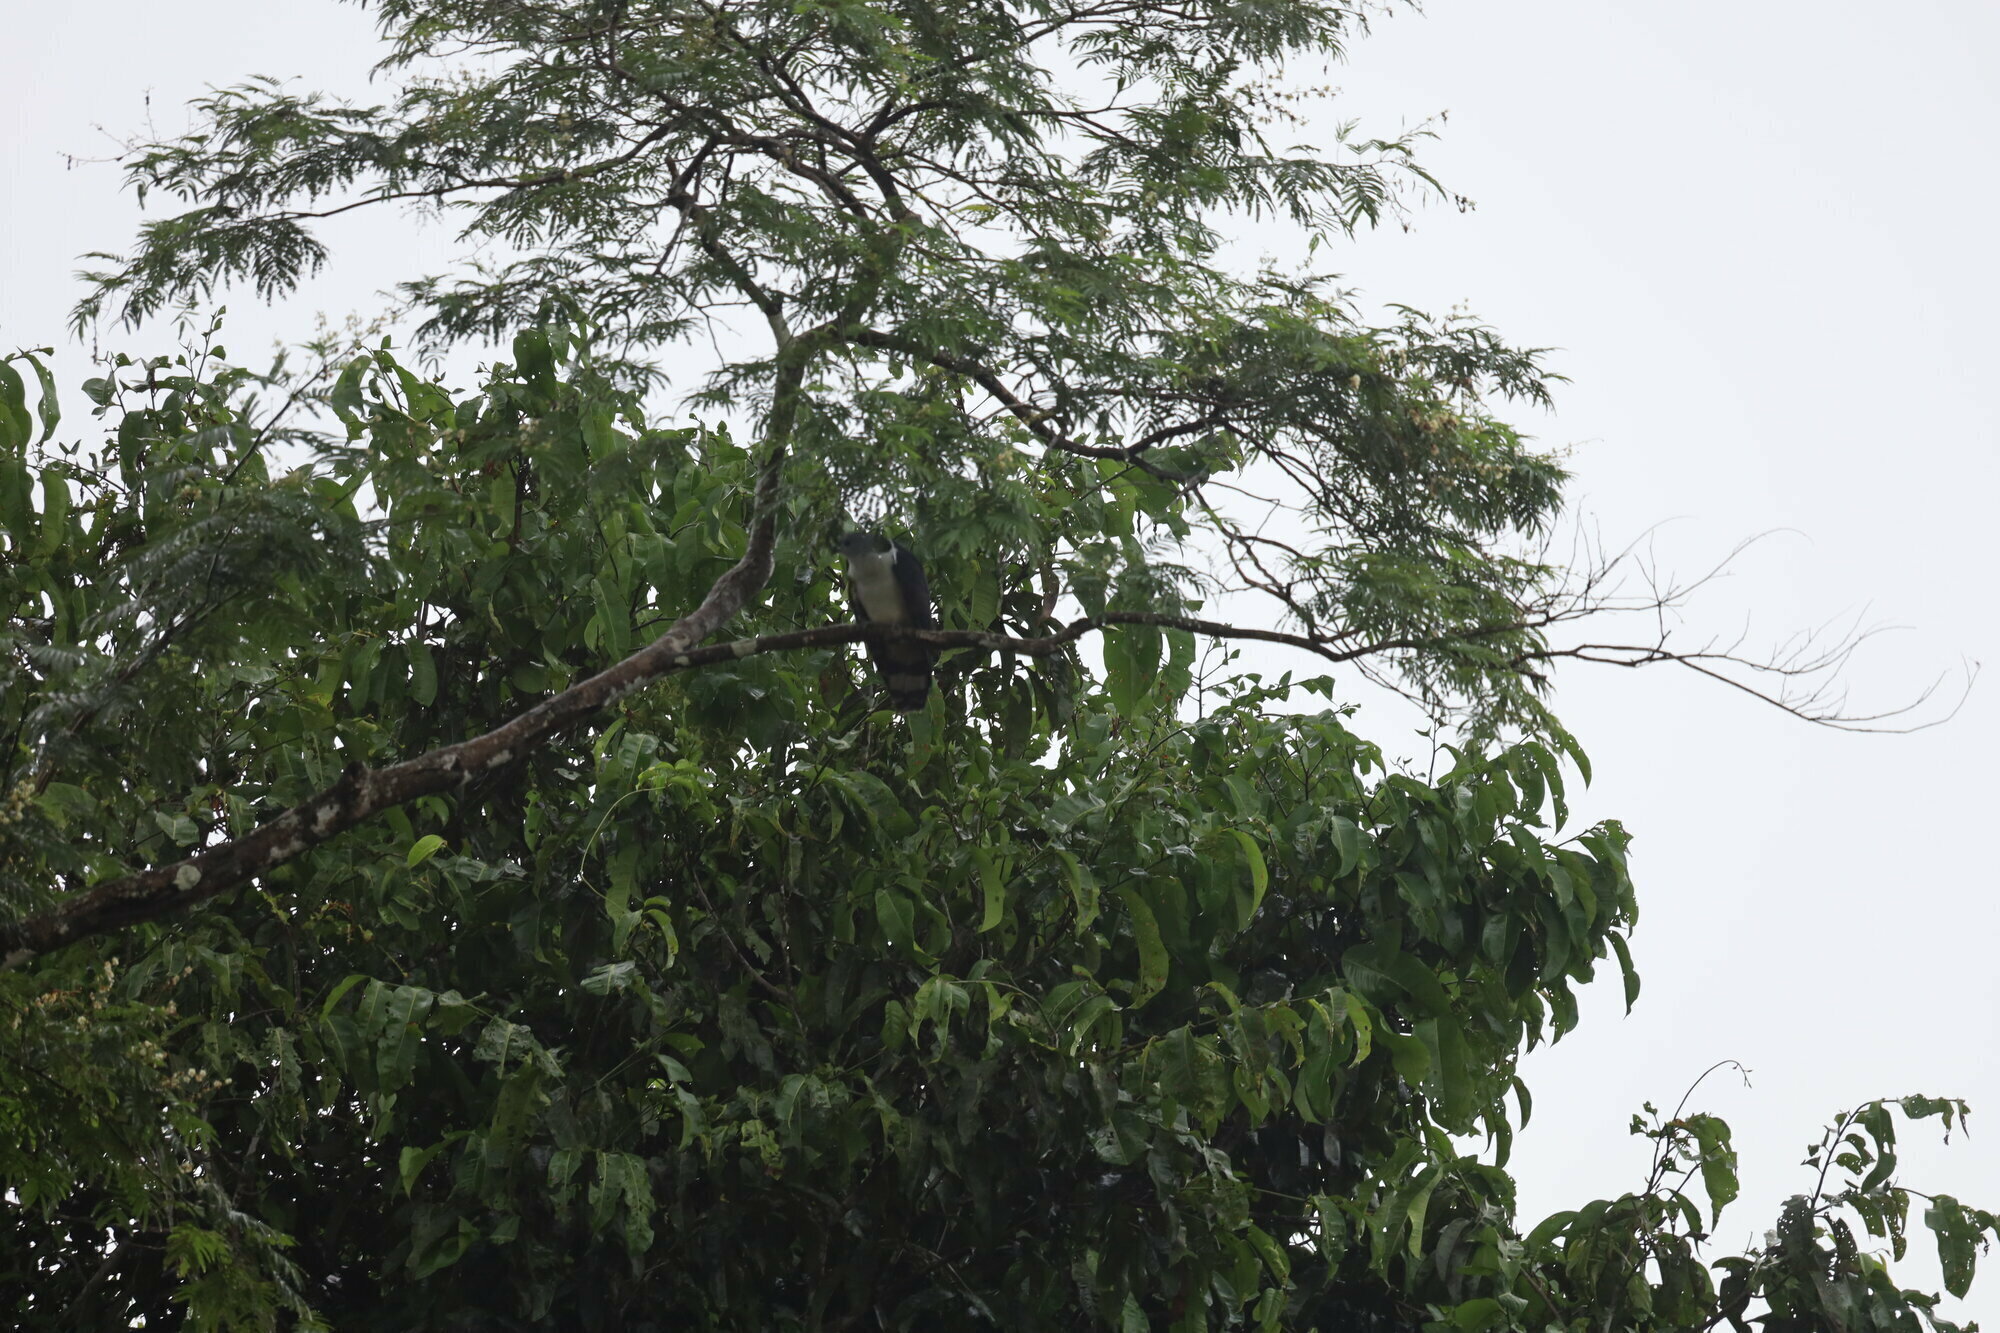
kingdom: Animalia
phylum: Chordata
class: Aves
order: Accipitriformes
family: Accipitridae
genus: Leptodon
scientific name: Leptodon cayanensis
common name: Gray-headed kite
